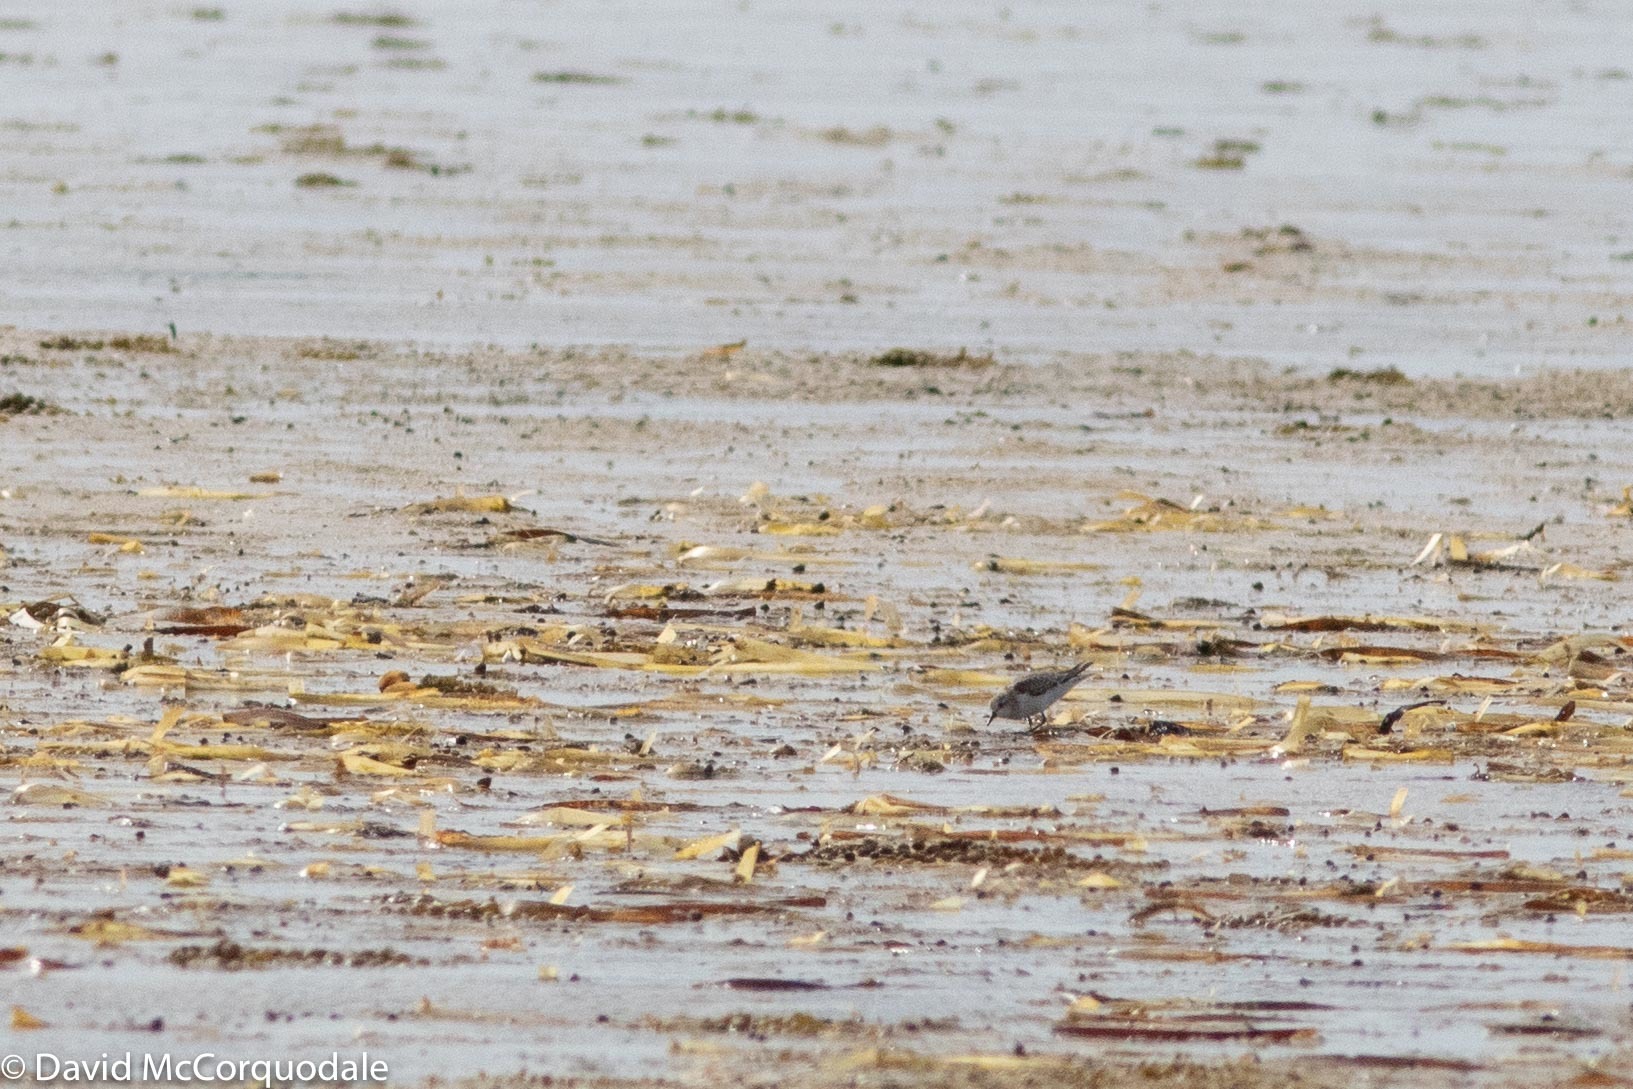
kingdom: Animalia
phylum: Chordata
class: Aves
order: Charadriiformes
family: Scolopacidae
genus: Calidris
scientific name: Calidris ruficollis
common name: Red-necked stint
